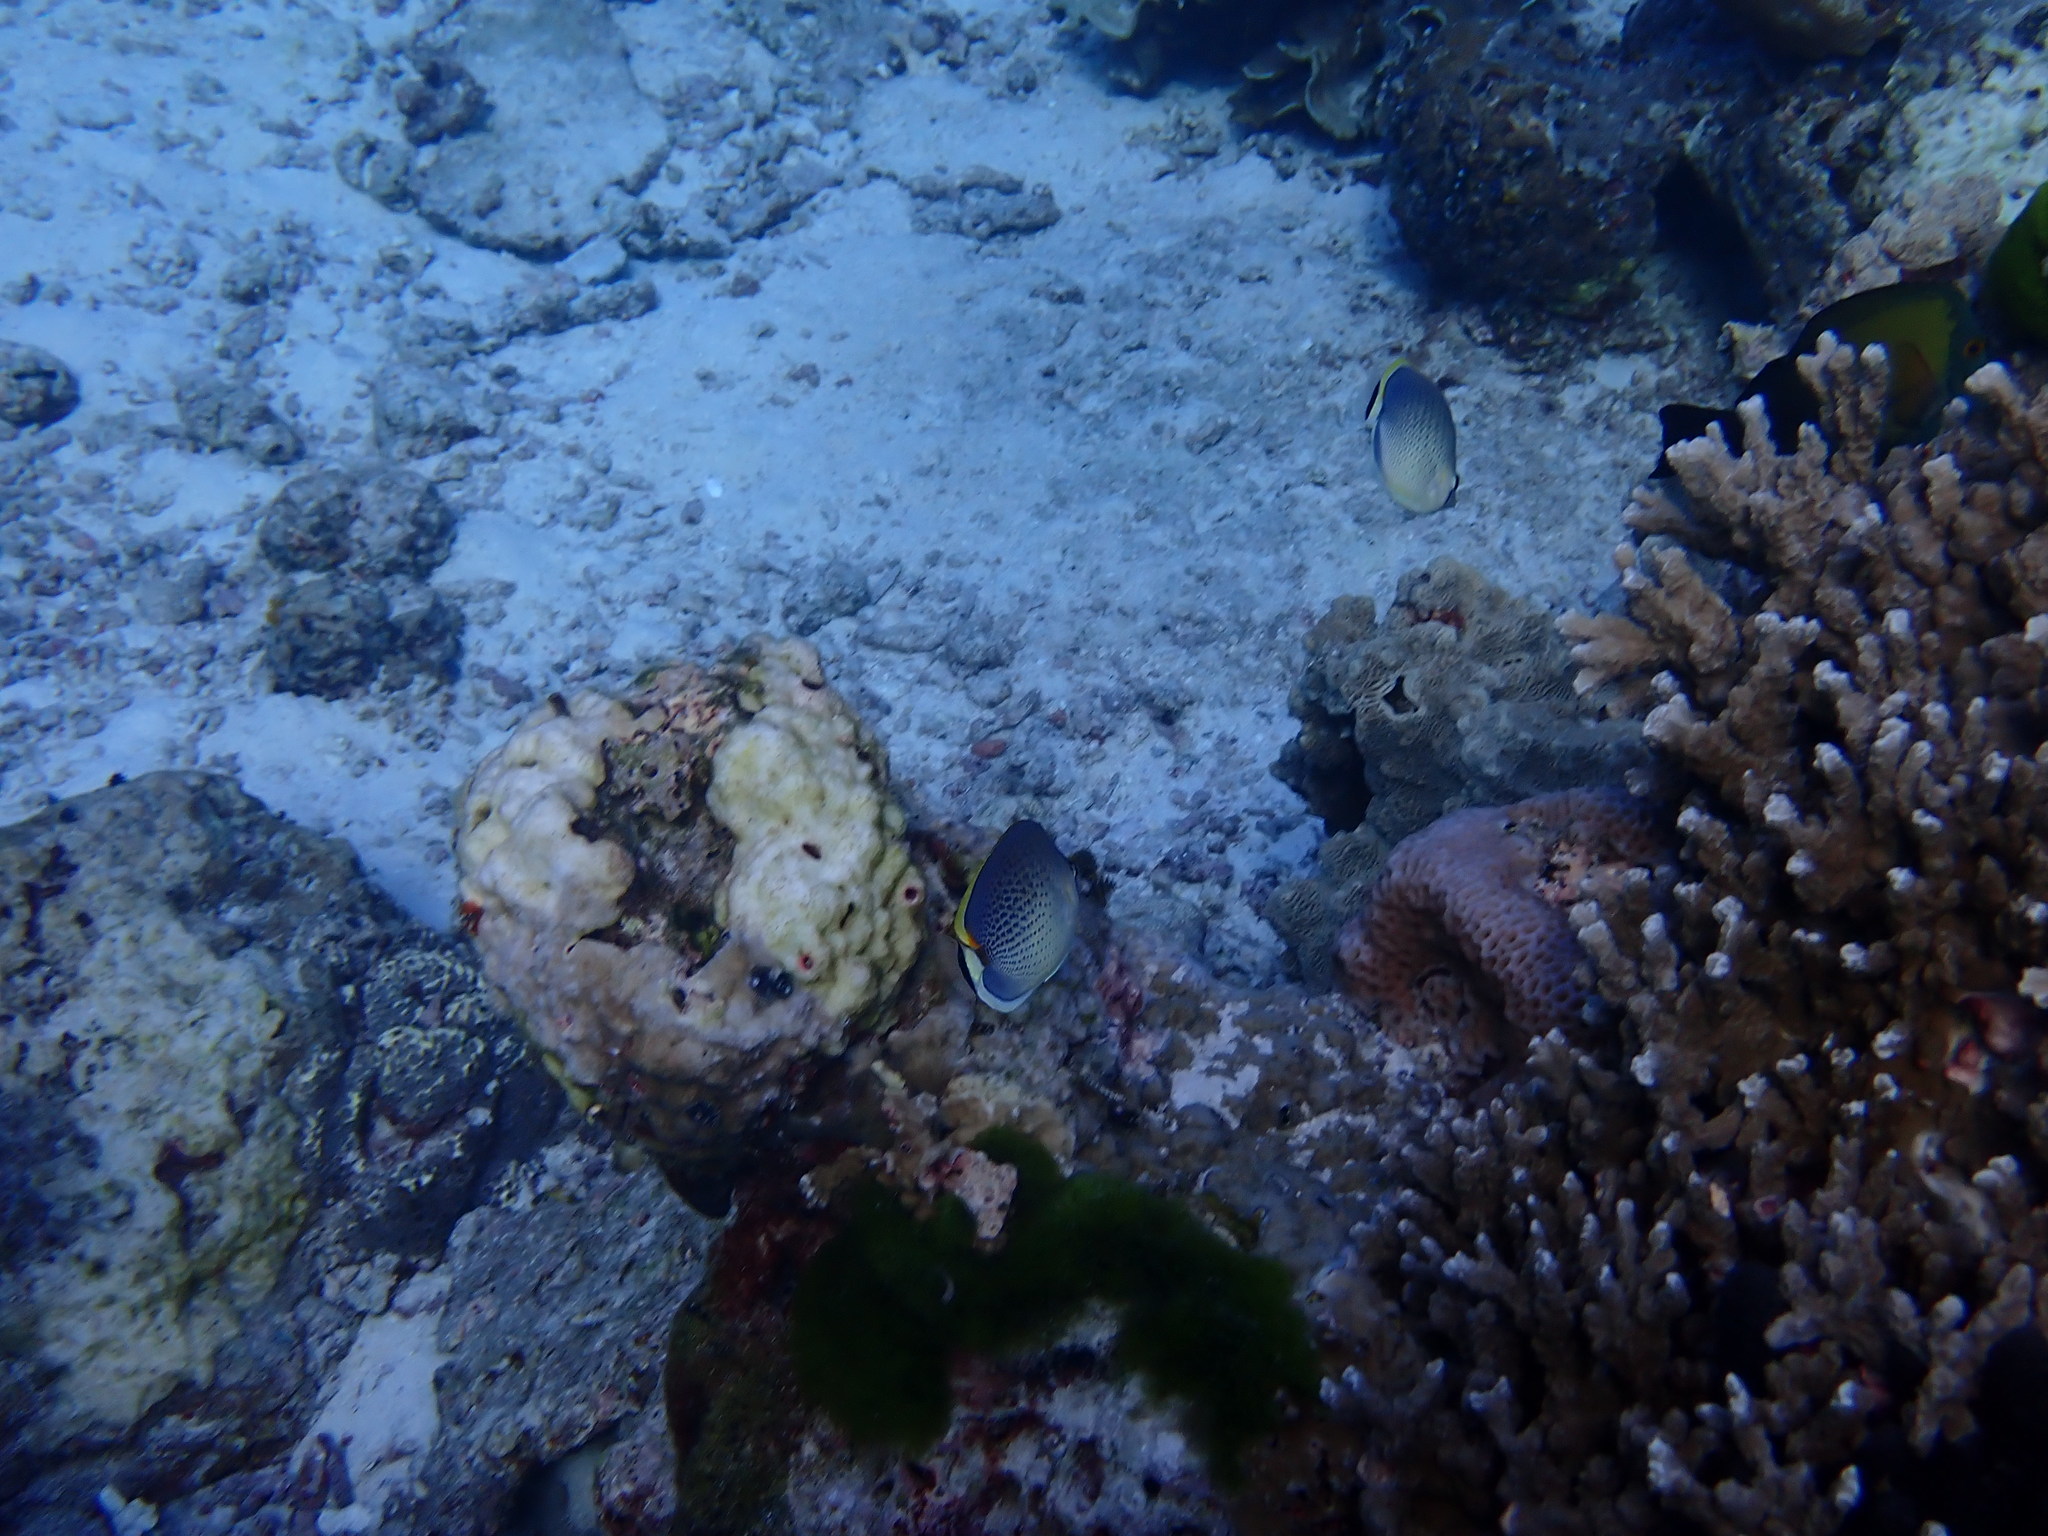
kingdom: Animalia
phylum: Chordata
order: Perciformes
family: Chaetodontidae
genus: Chaetodon
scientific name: Chaetodon guttatissimus
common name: Spotted butterflyfish
